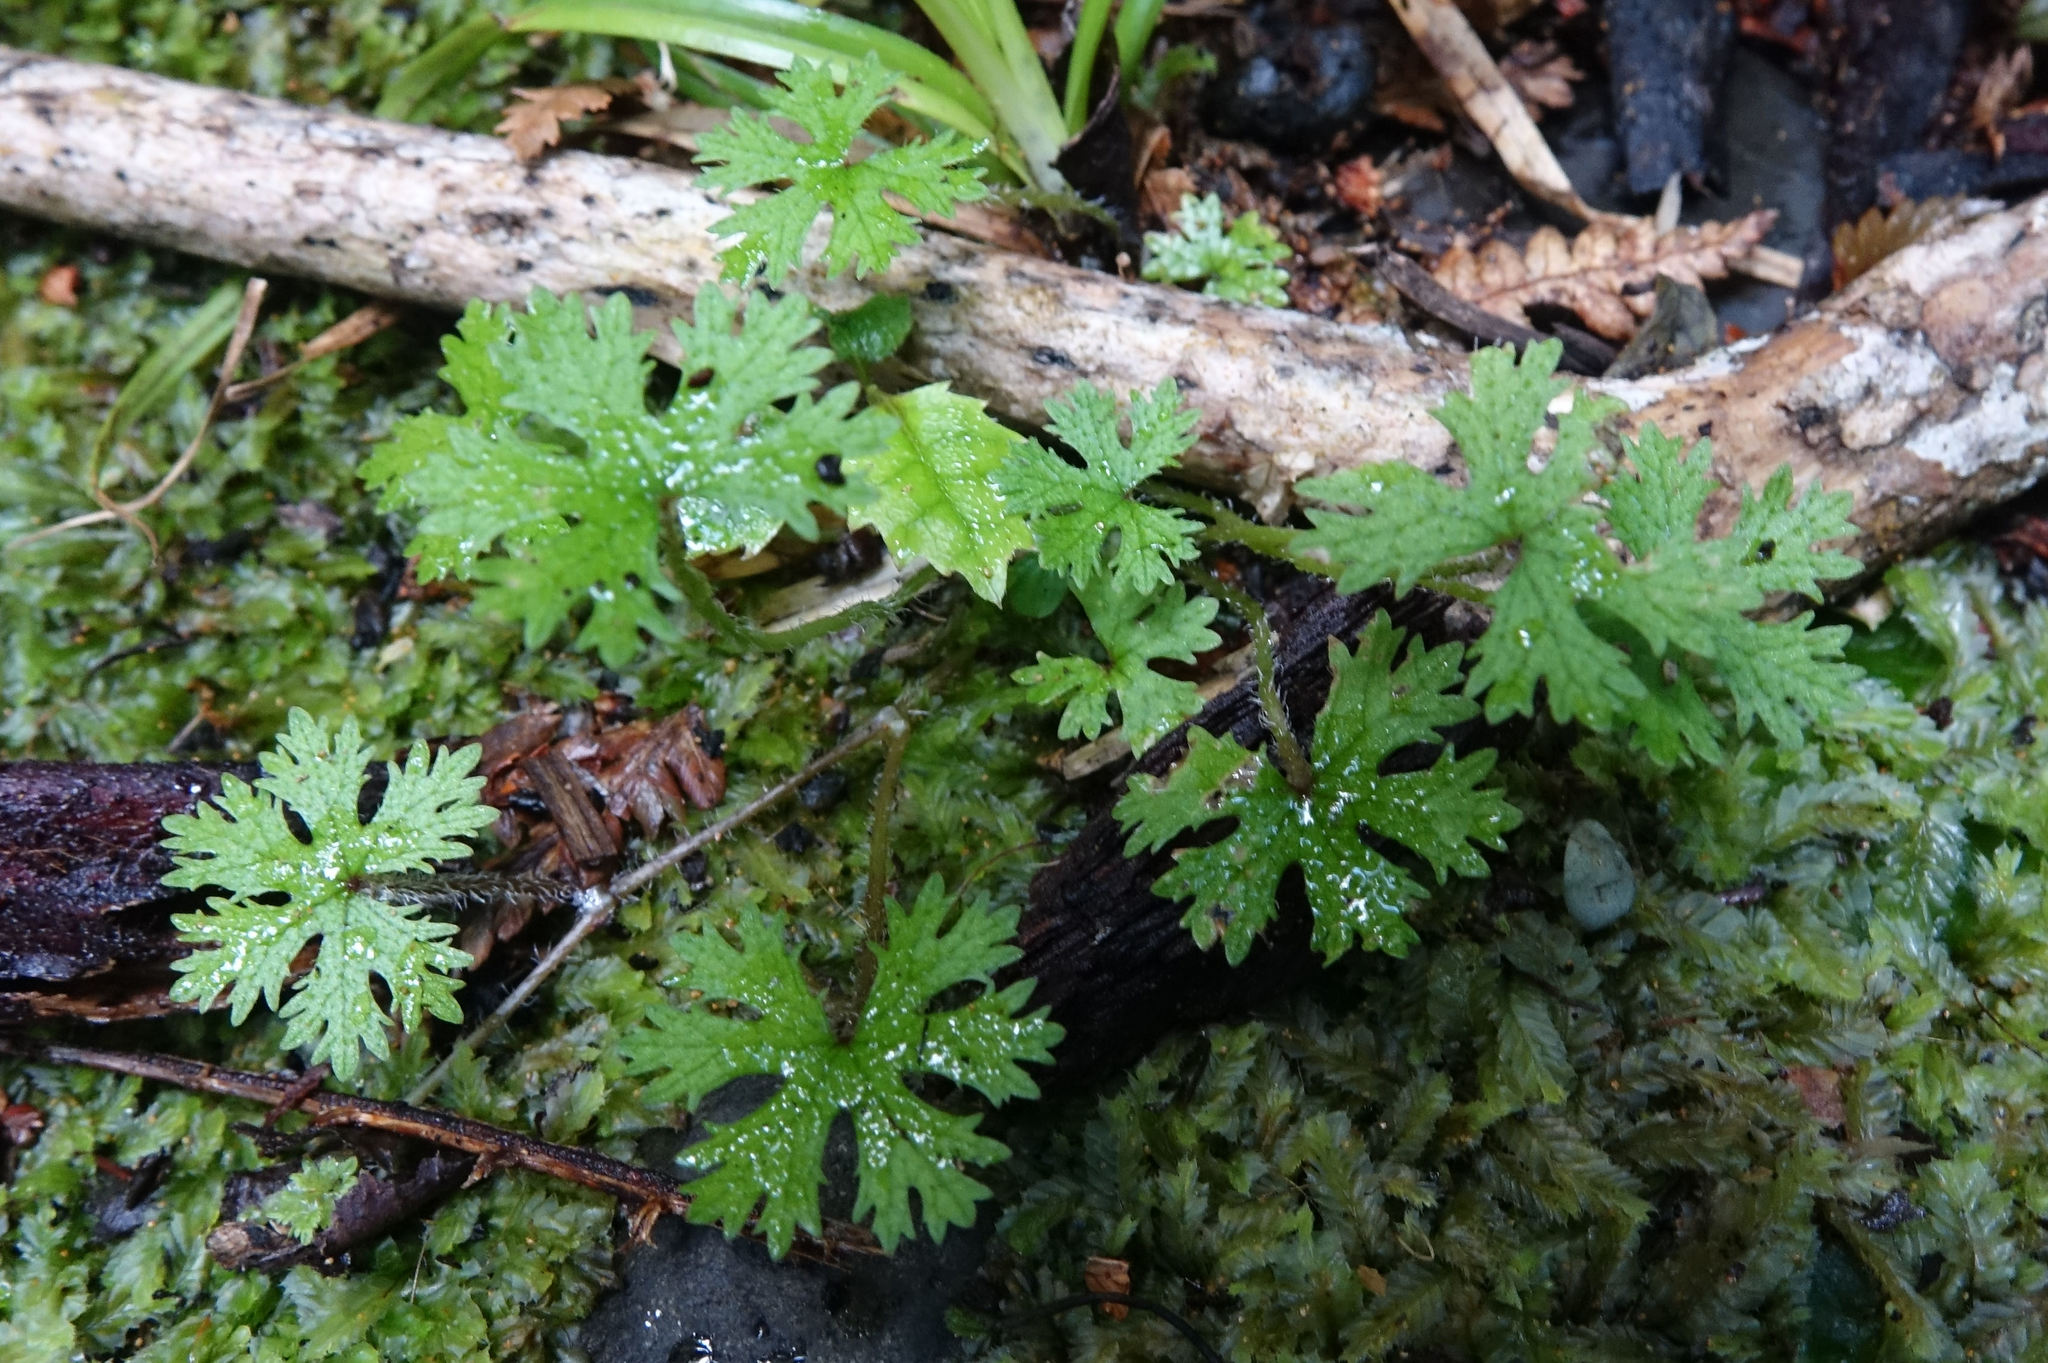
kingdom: Plantae
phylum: Tracheophyta
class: Magnoliopsida
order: Apiales
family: Araliaceae
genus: Hydrocotyle
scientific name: Hydrocotyle dissecta
